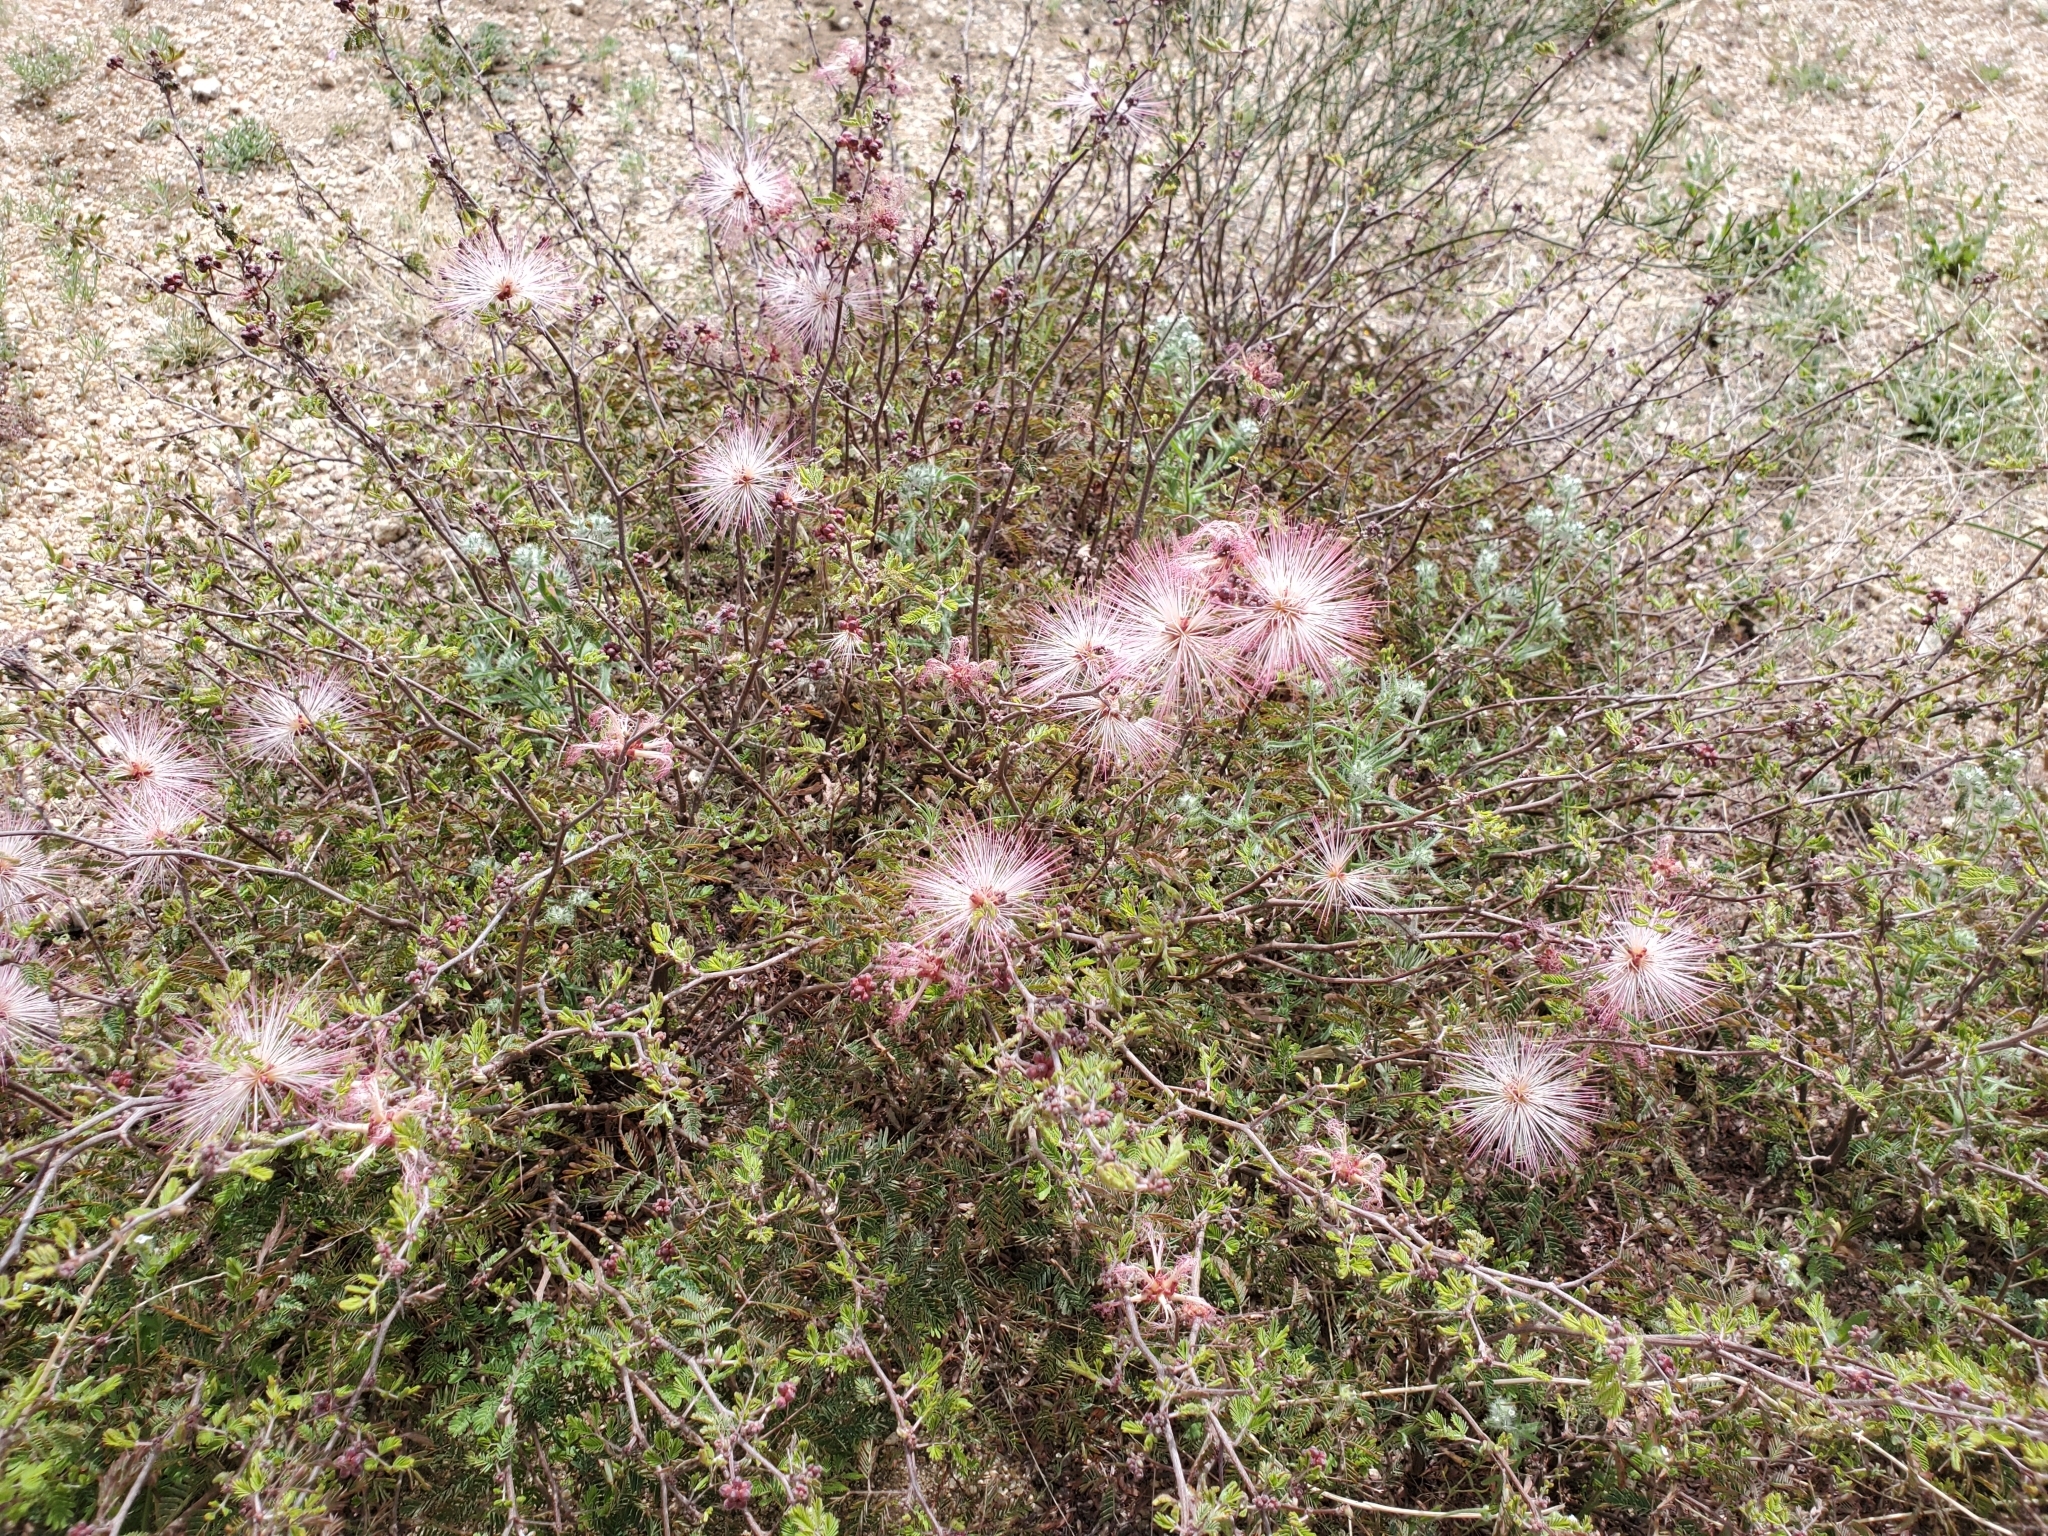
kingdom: Plantae
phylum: Tracheophyta
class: Magnoliopsida
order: Fabales
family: Fabaceae
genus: Calliandra
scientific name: Calliandra eriophylla
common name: Fairy-duster
